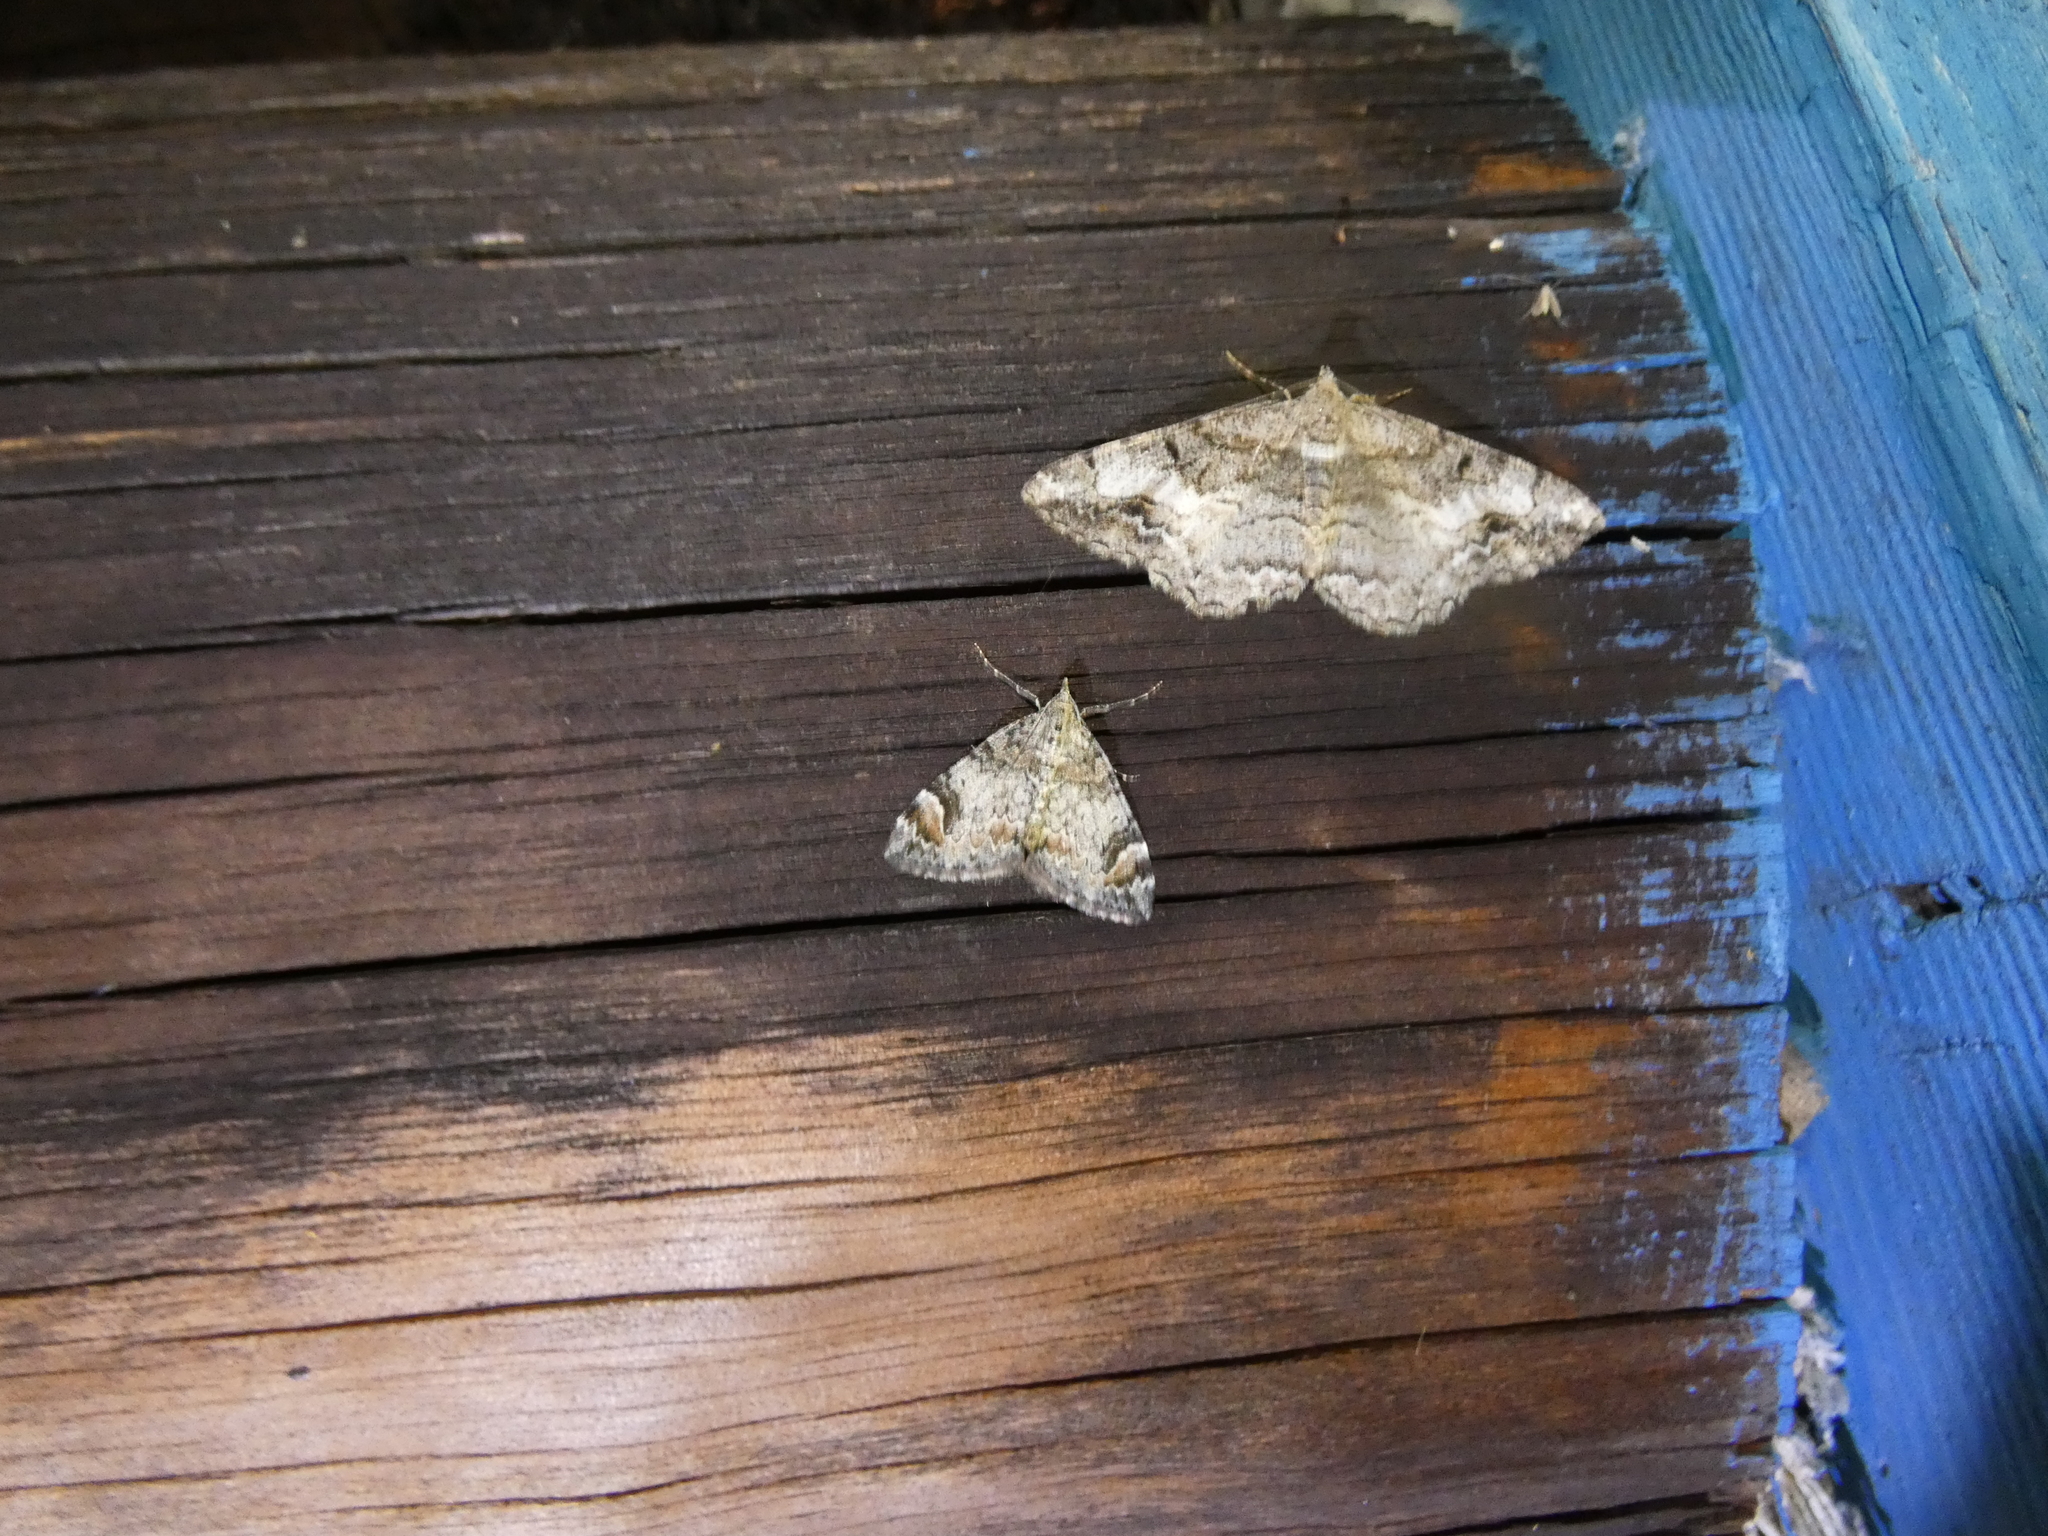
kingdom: Animalia
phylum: Arthropoda
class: Insecta
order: Lepidoptera
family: Geometridae
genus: Alcis
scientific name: Alcis deversata
